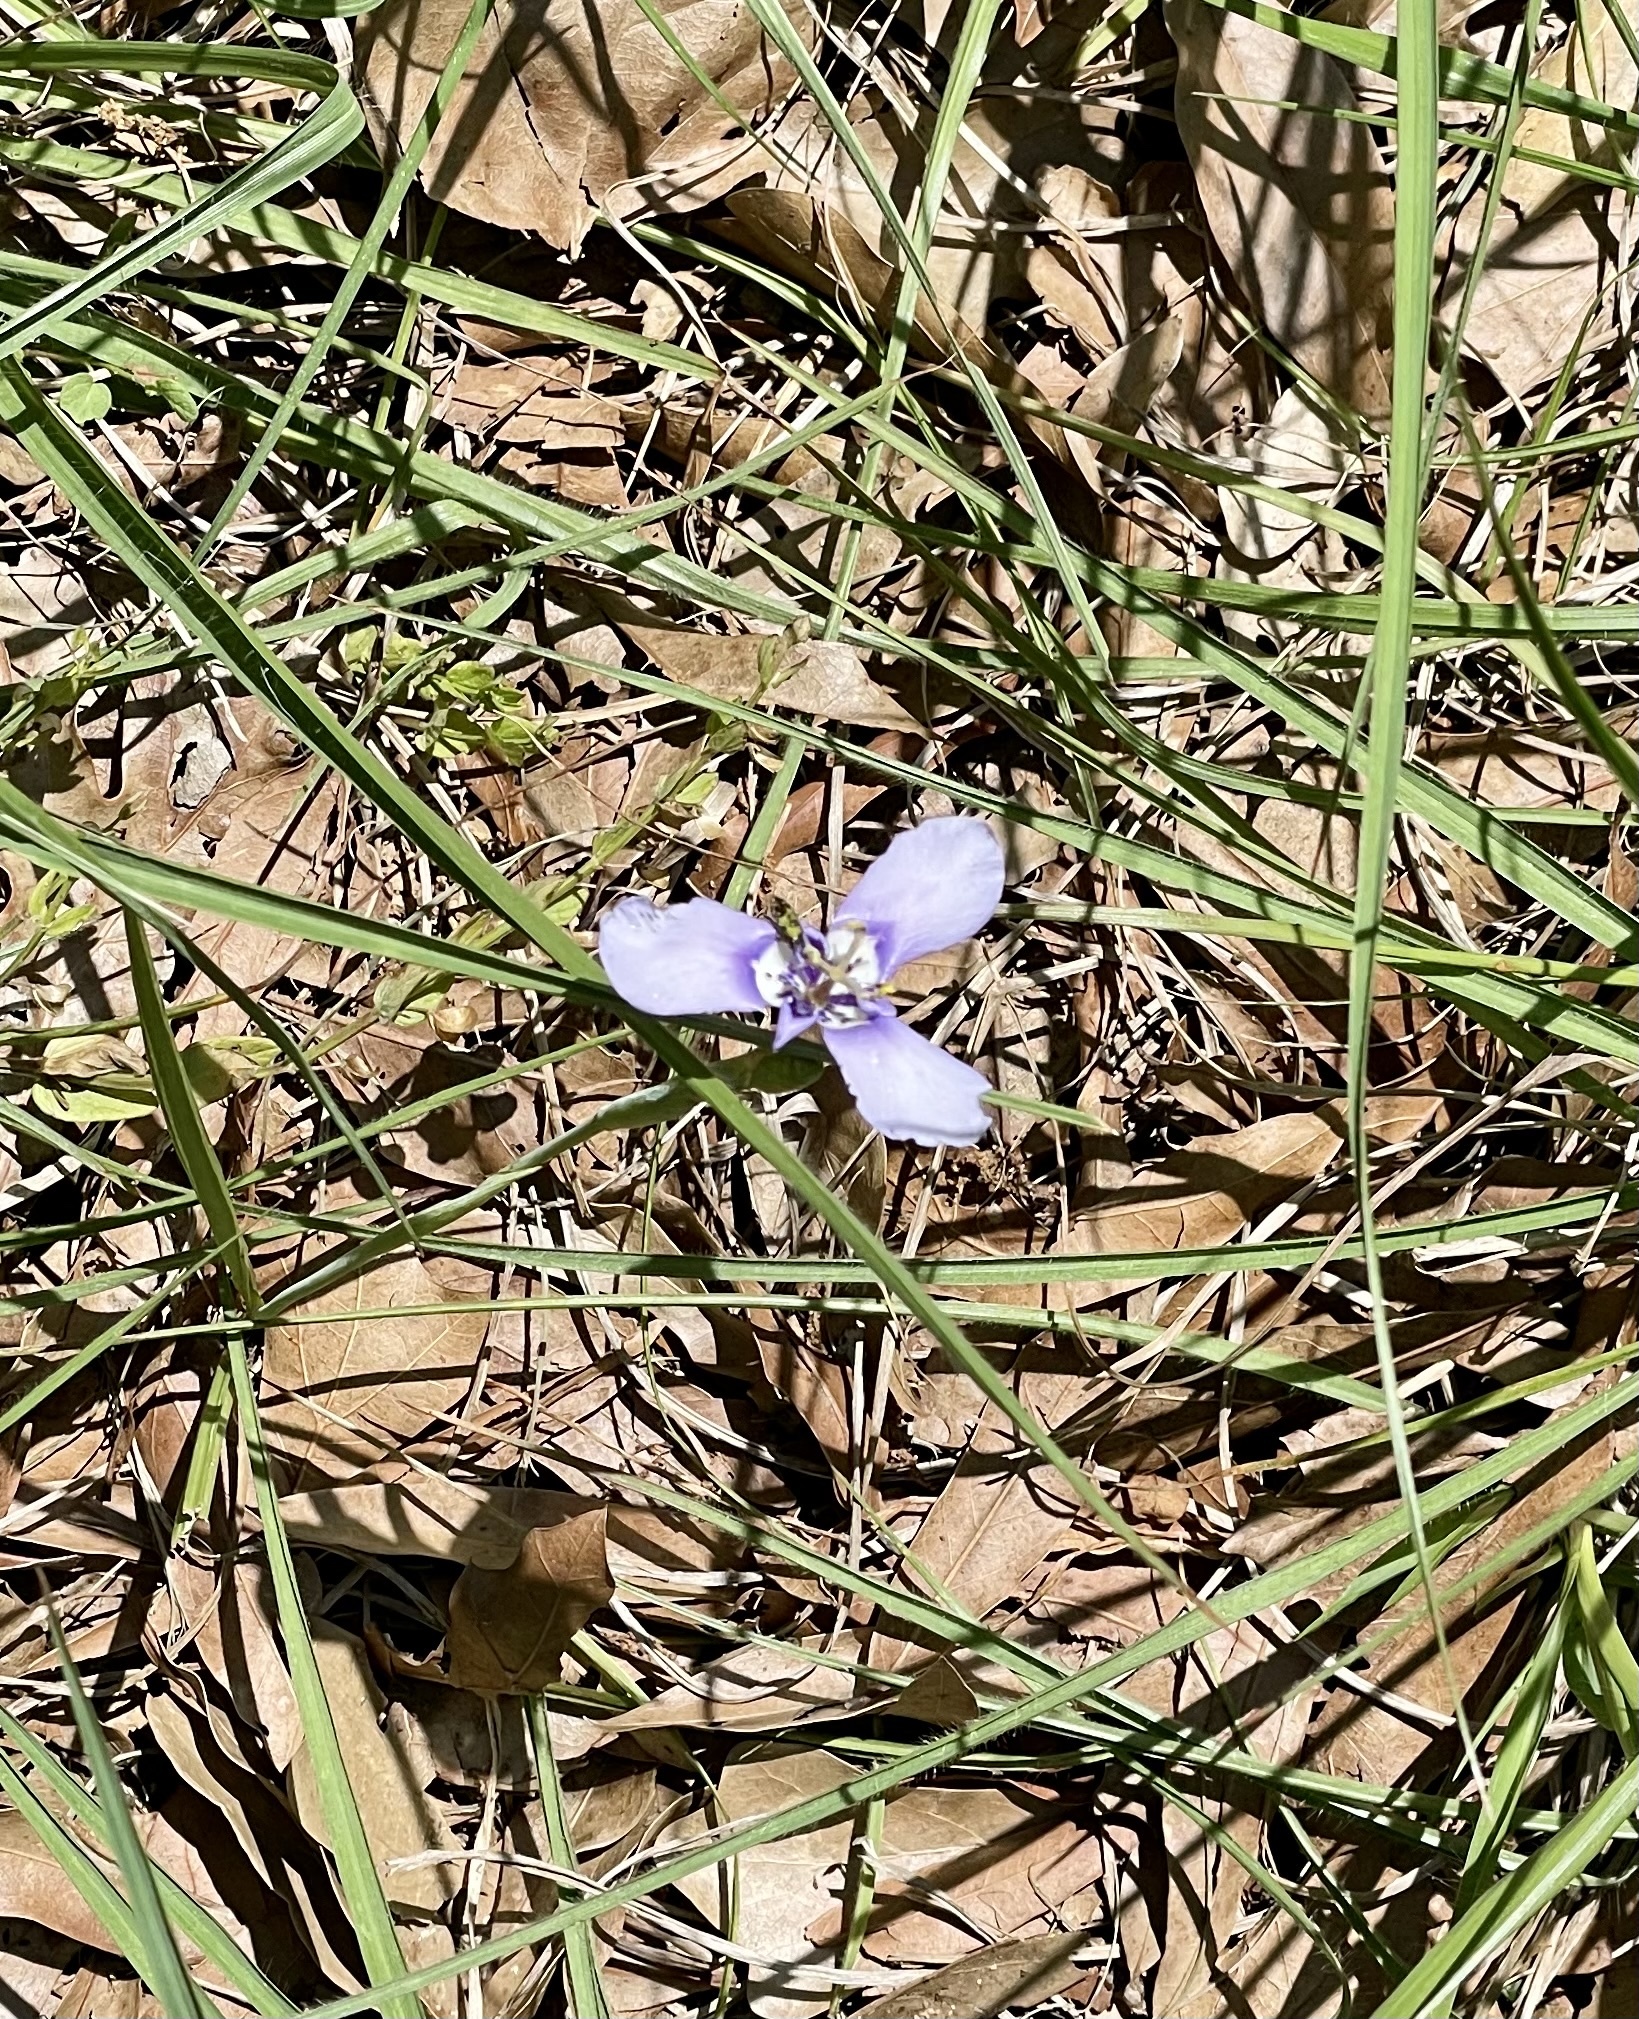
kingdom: Plantae
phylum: Tracheophyta
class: Liliopsida
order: Asparagales
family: Iridaceae
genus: Herbertia
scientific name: Herbertia lahue
